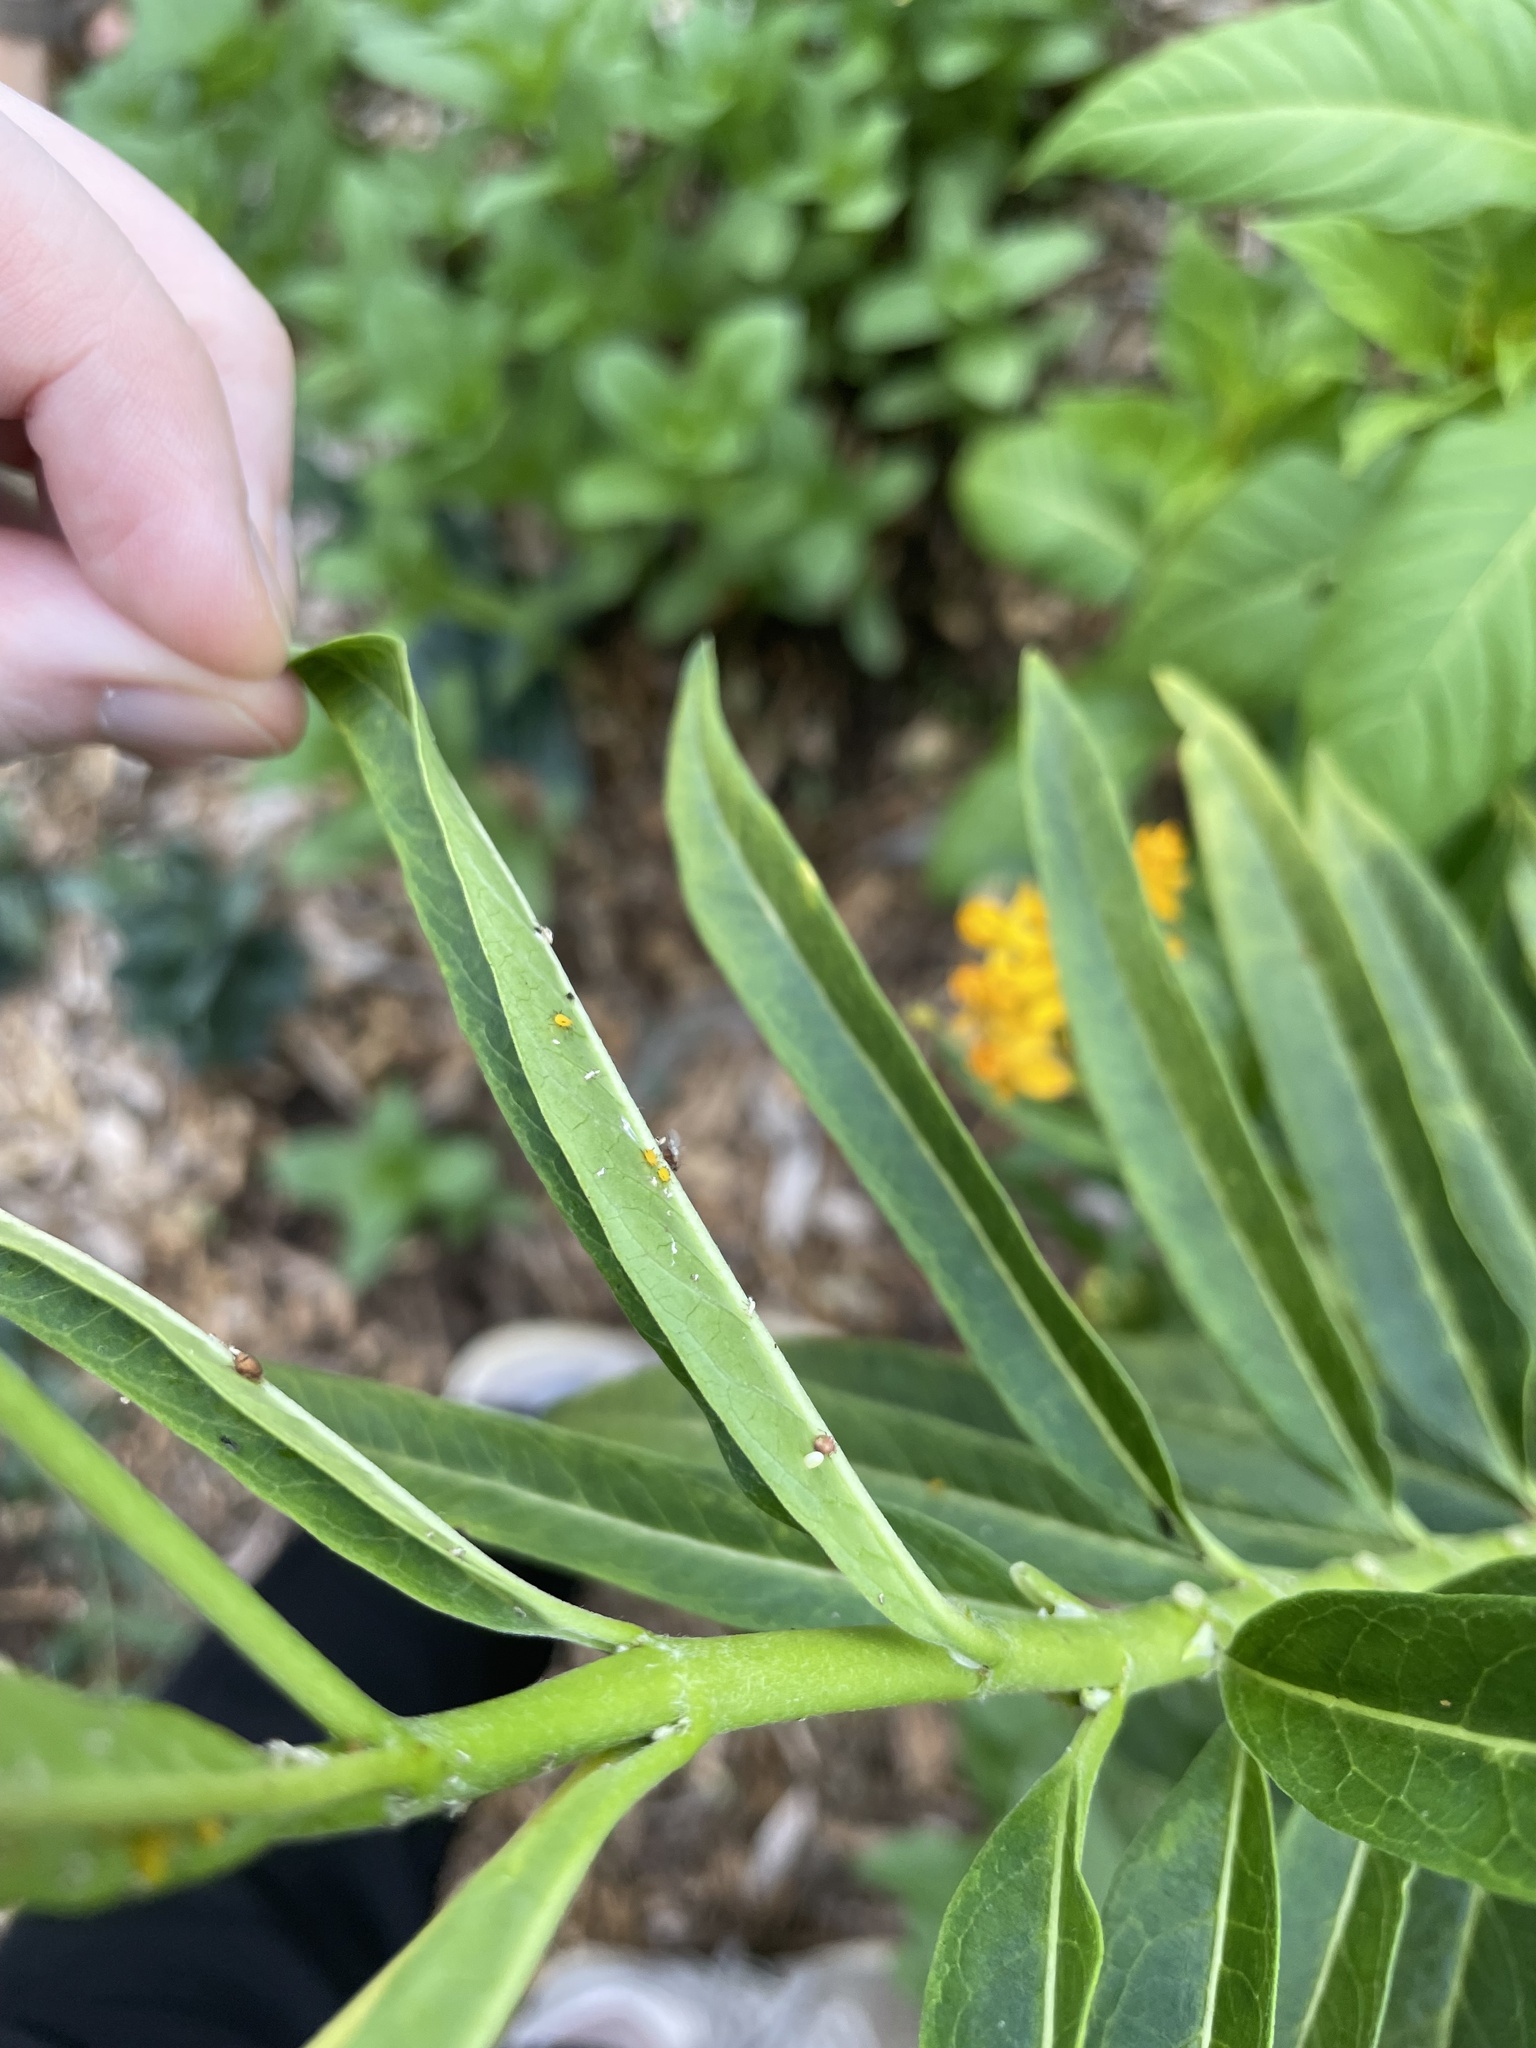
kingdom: Animalia
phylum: Arthropoda
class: Insecta
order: Lepidoptera
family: Nymphalidae
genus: Danaus
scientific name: Danaus plexippus
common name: Monarch
